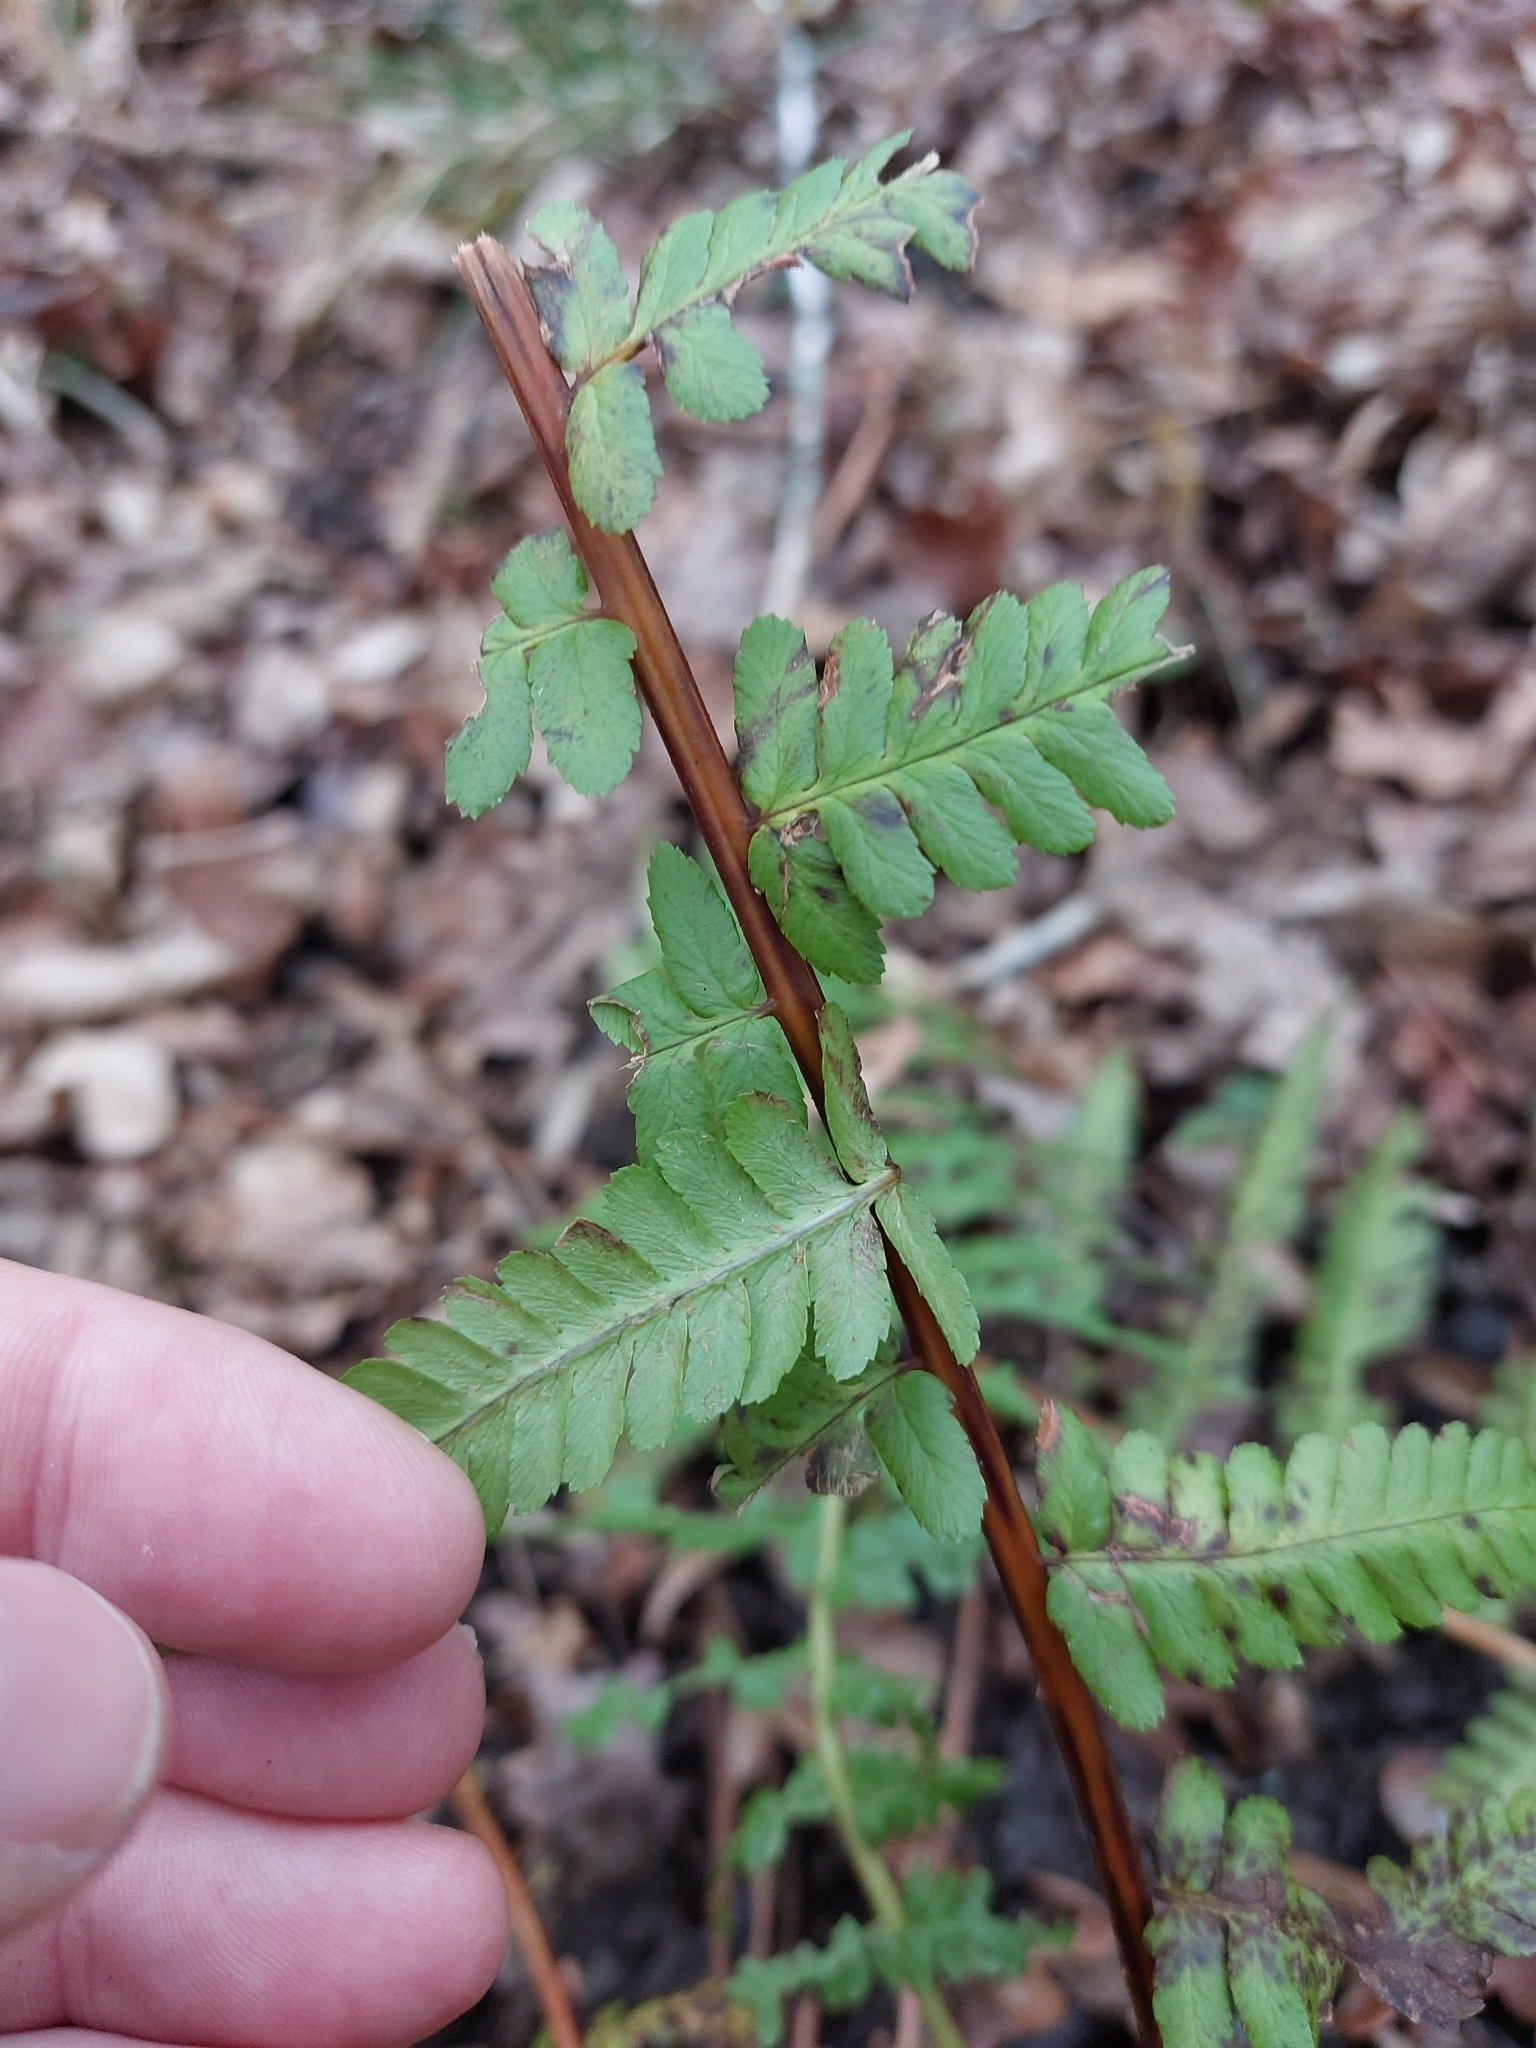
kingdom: Plantae
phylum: Tracheophyta
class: Polypodiopsida
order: Polypodiales
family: Dryopteridaceae
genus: Dryopteris
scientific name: Dryopteris filix-mas
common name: Male fern
